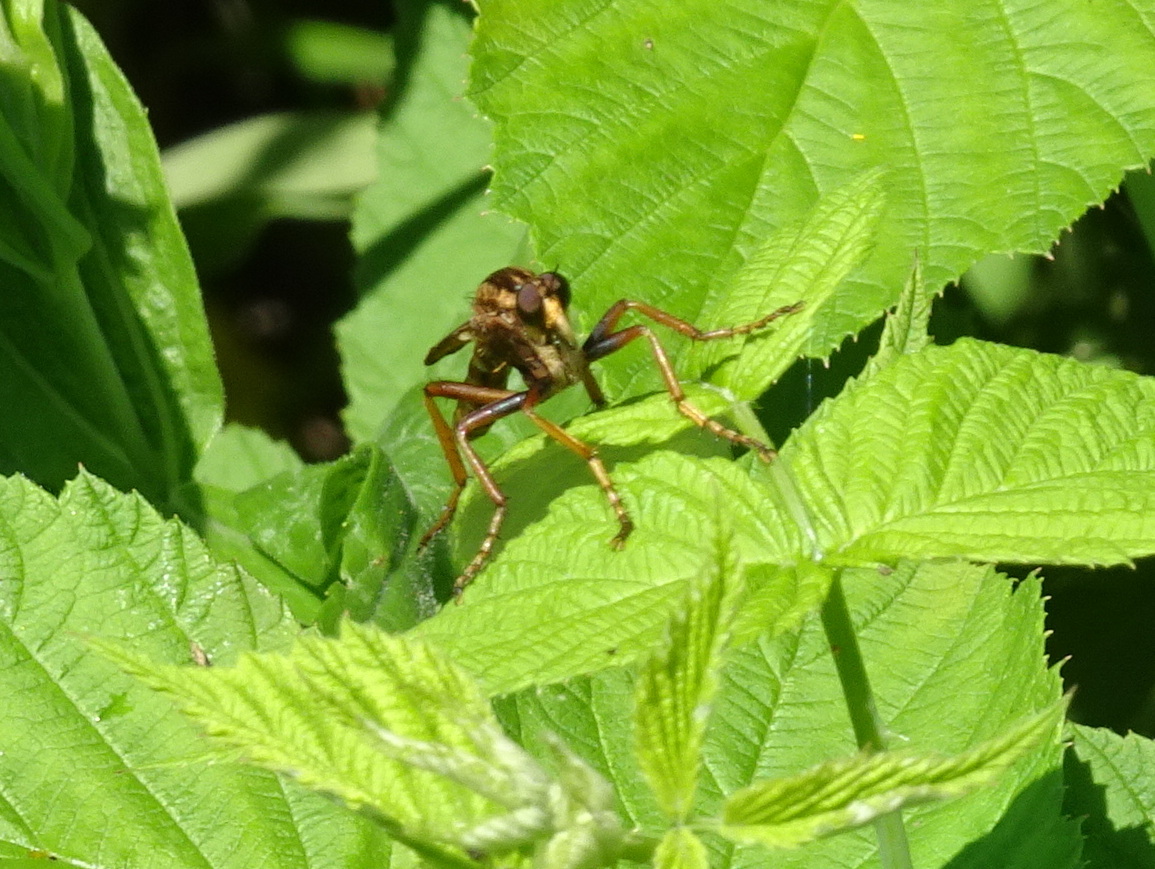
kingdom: Animalia
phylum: Arthropoda
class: Insecta
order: Diptera
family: Asilidae
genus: Asilus
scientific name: Asilus sericeus
